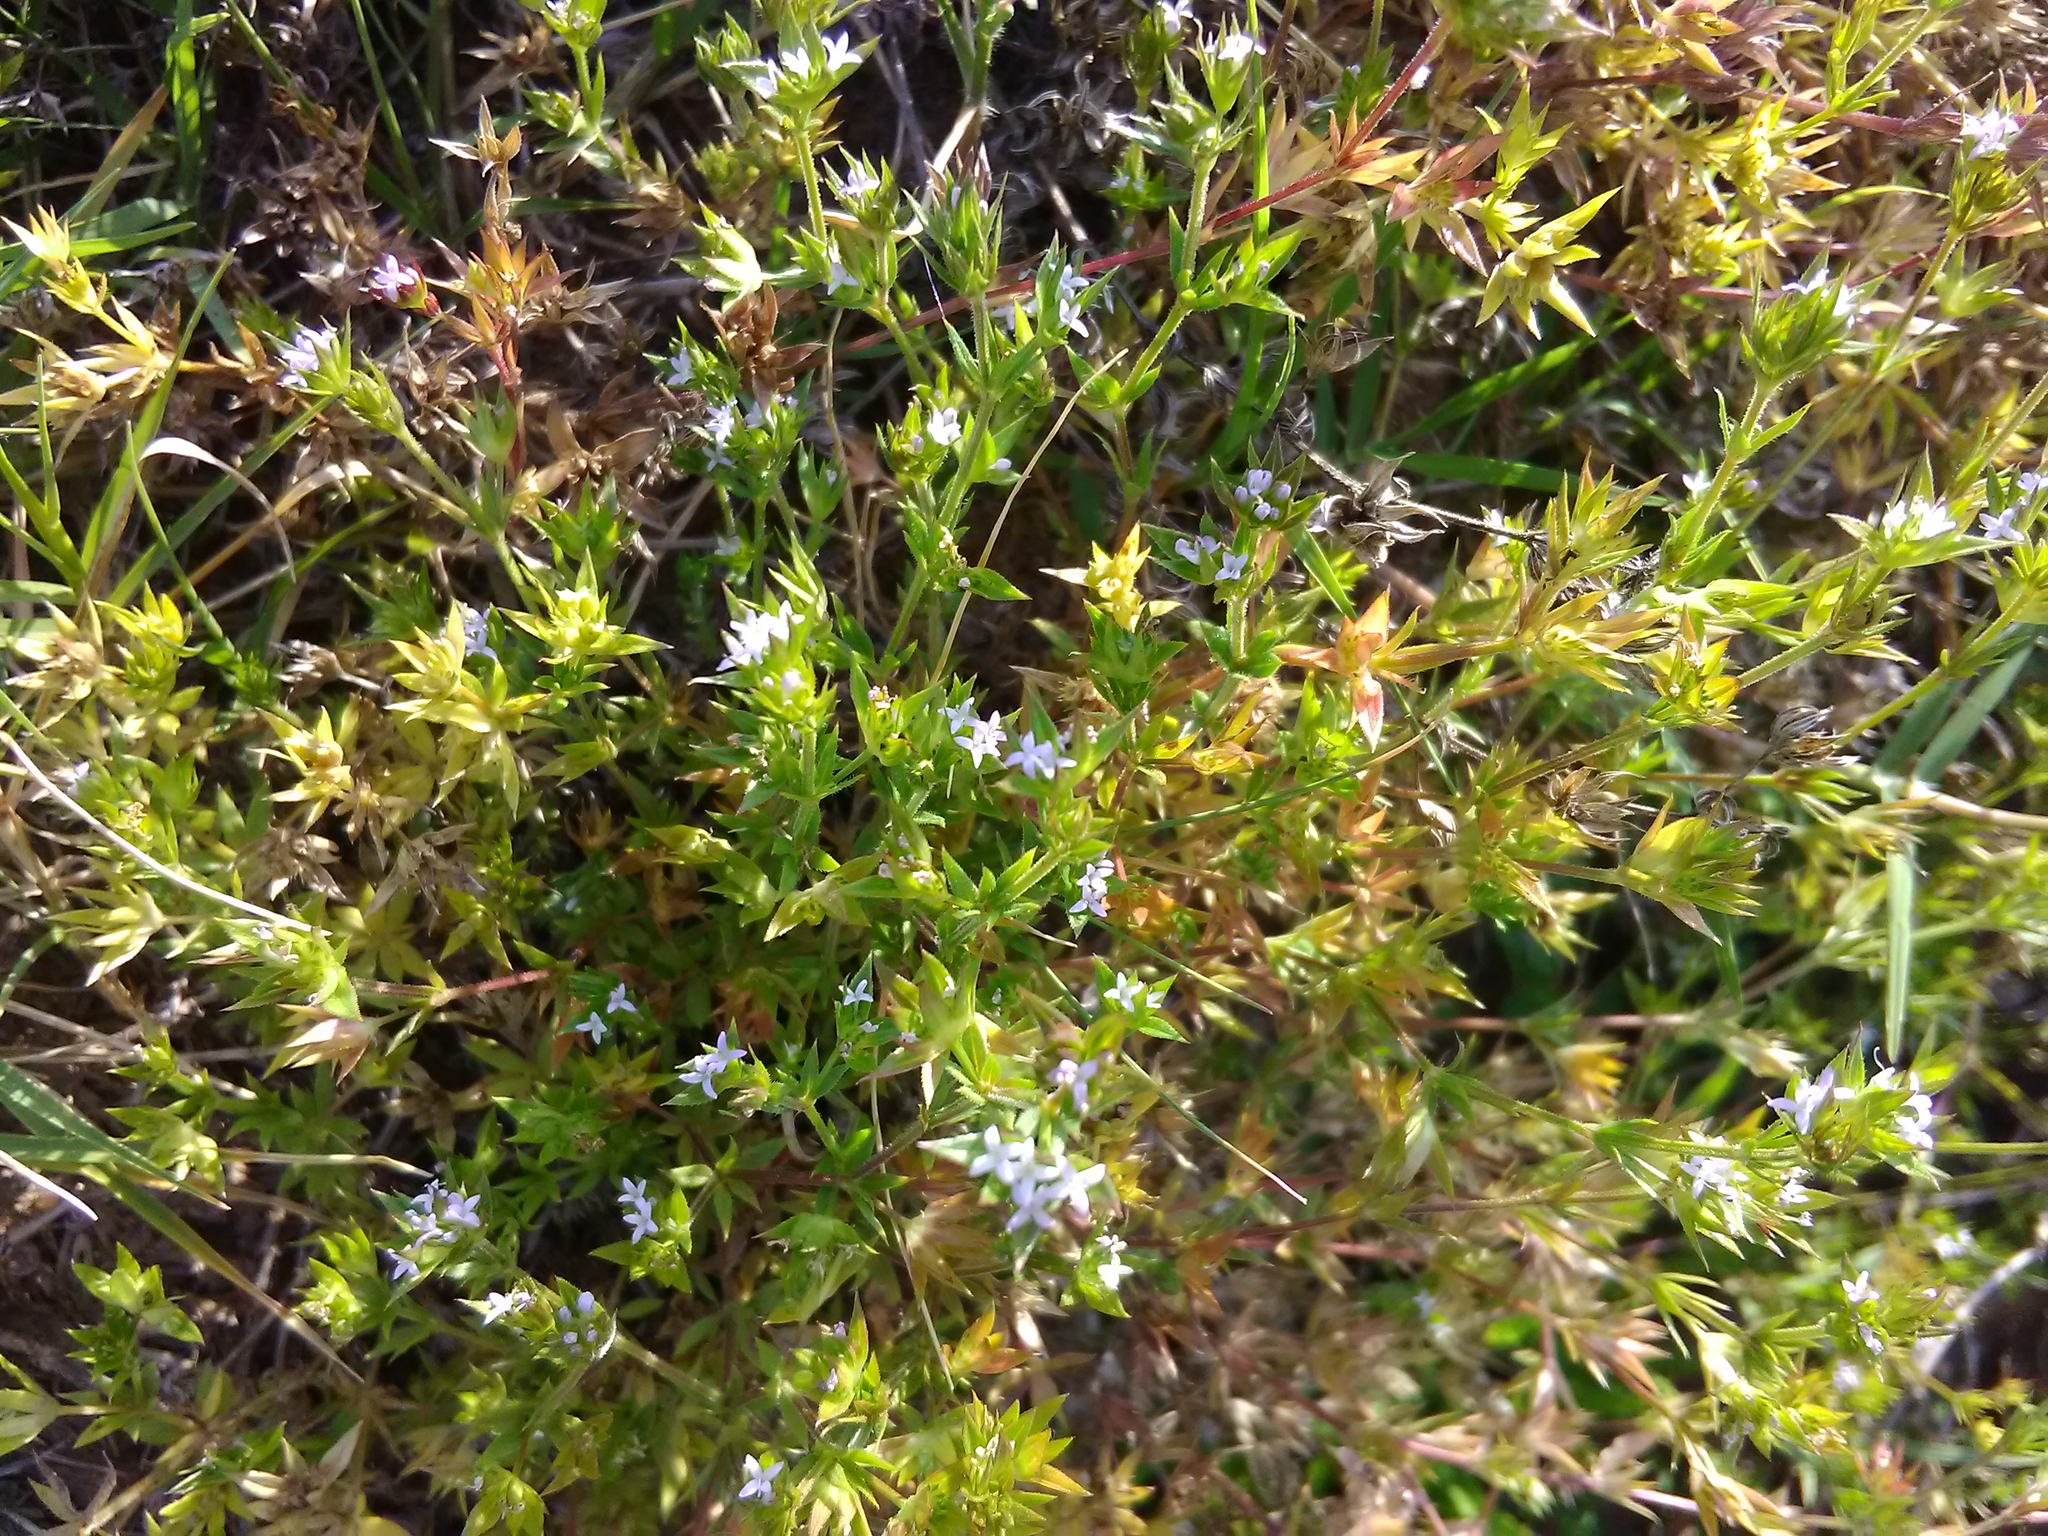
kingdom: Plantae
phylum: Tracheophyta
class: Magnoliopsida
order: Gentianales
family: Rubiaceae
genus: Sherardia
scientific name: Sherardia arvensis
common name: Field madder
